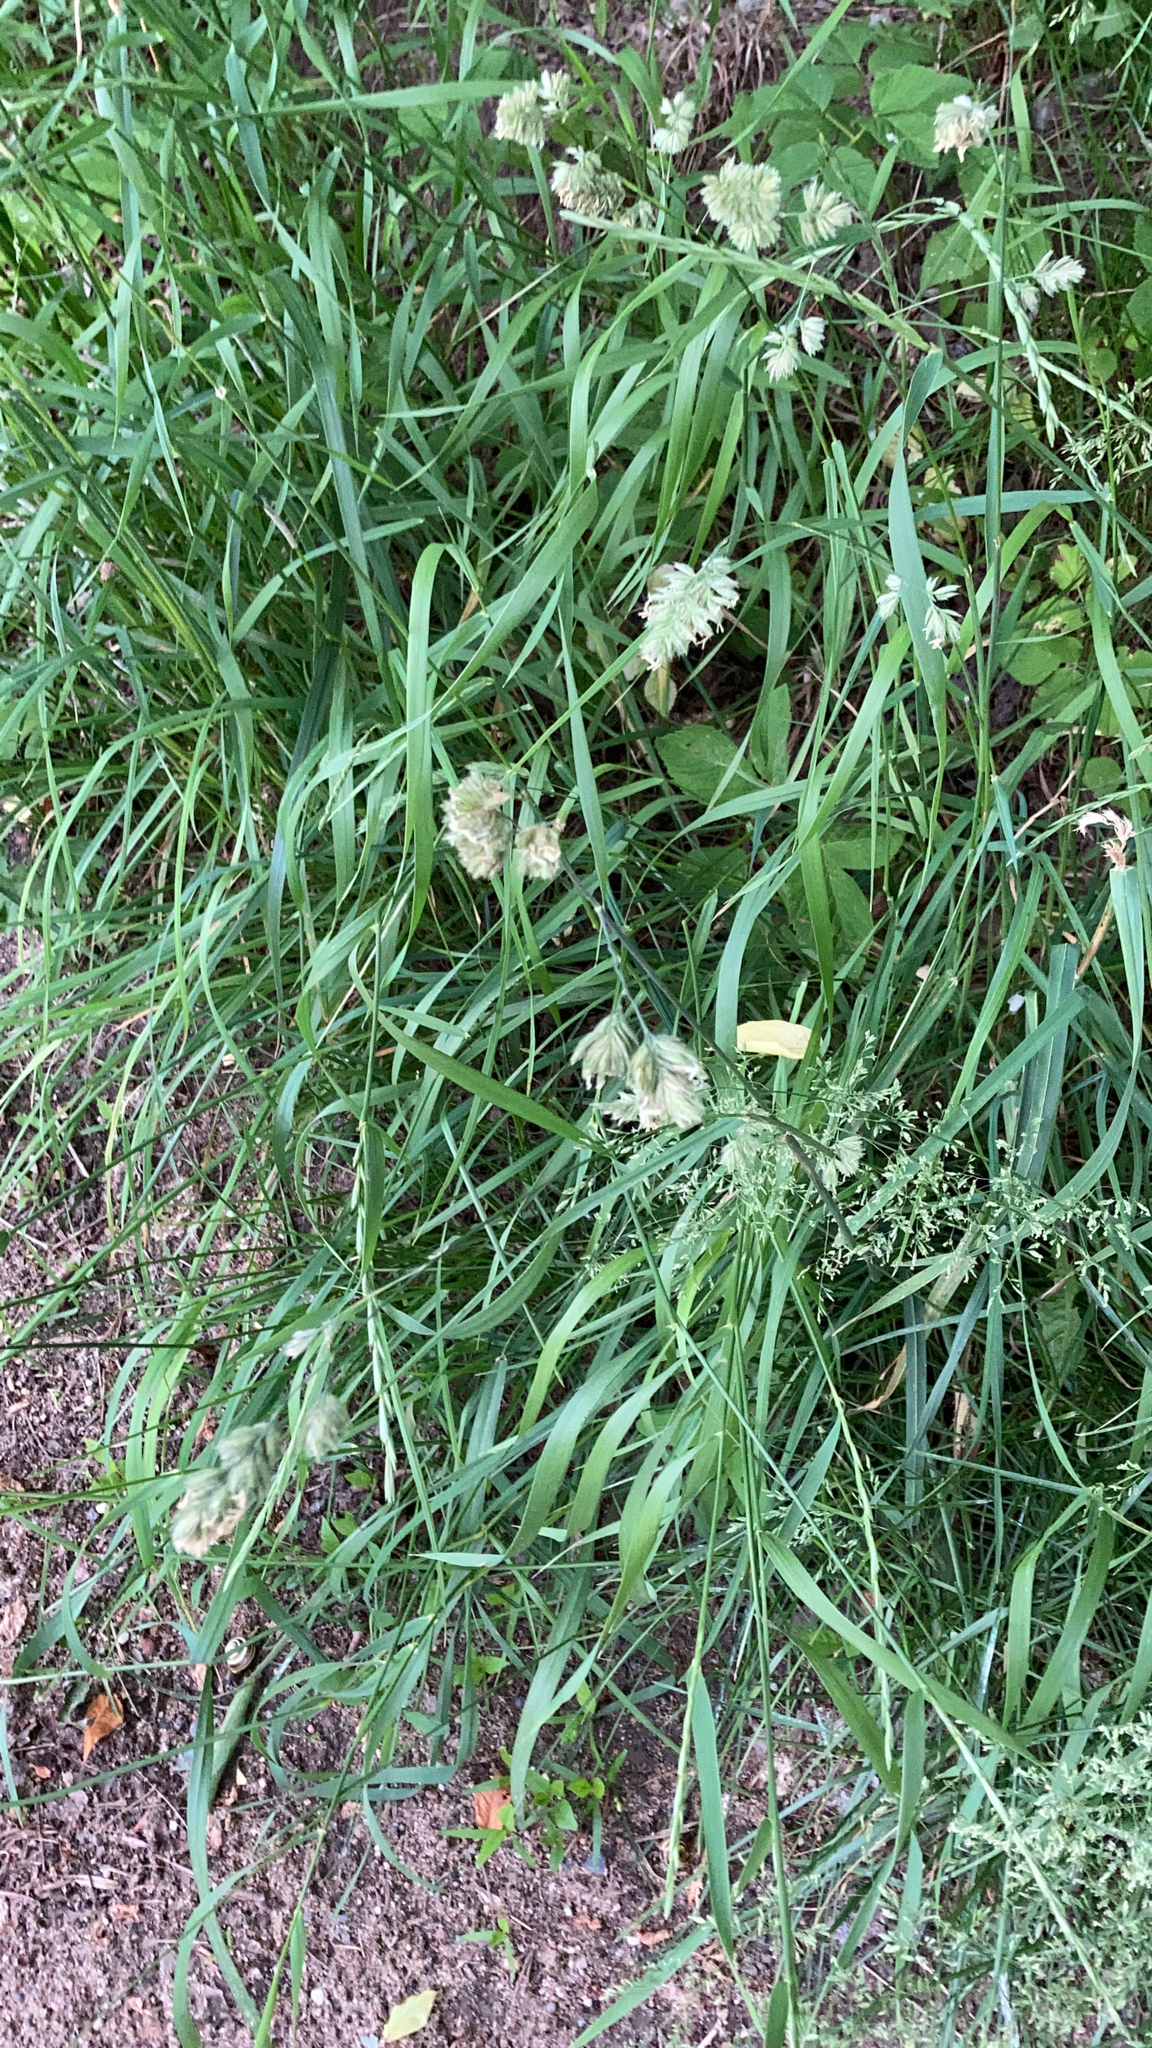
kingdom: Plantae
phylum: Tracheophyta
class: Liliopsida
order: Poales
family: Poaceae
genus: Dactylis
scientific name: Dactylis glomerata
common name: Orchardgrass
